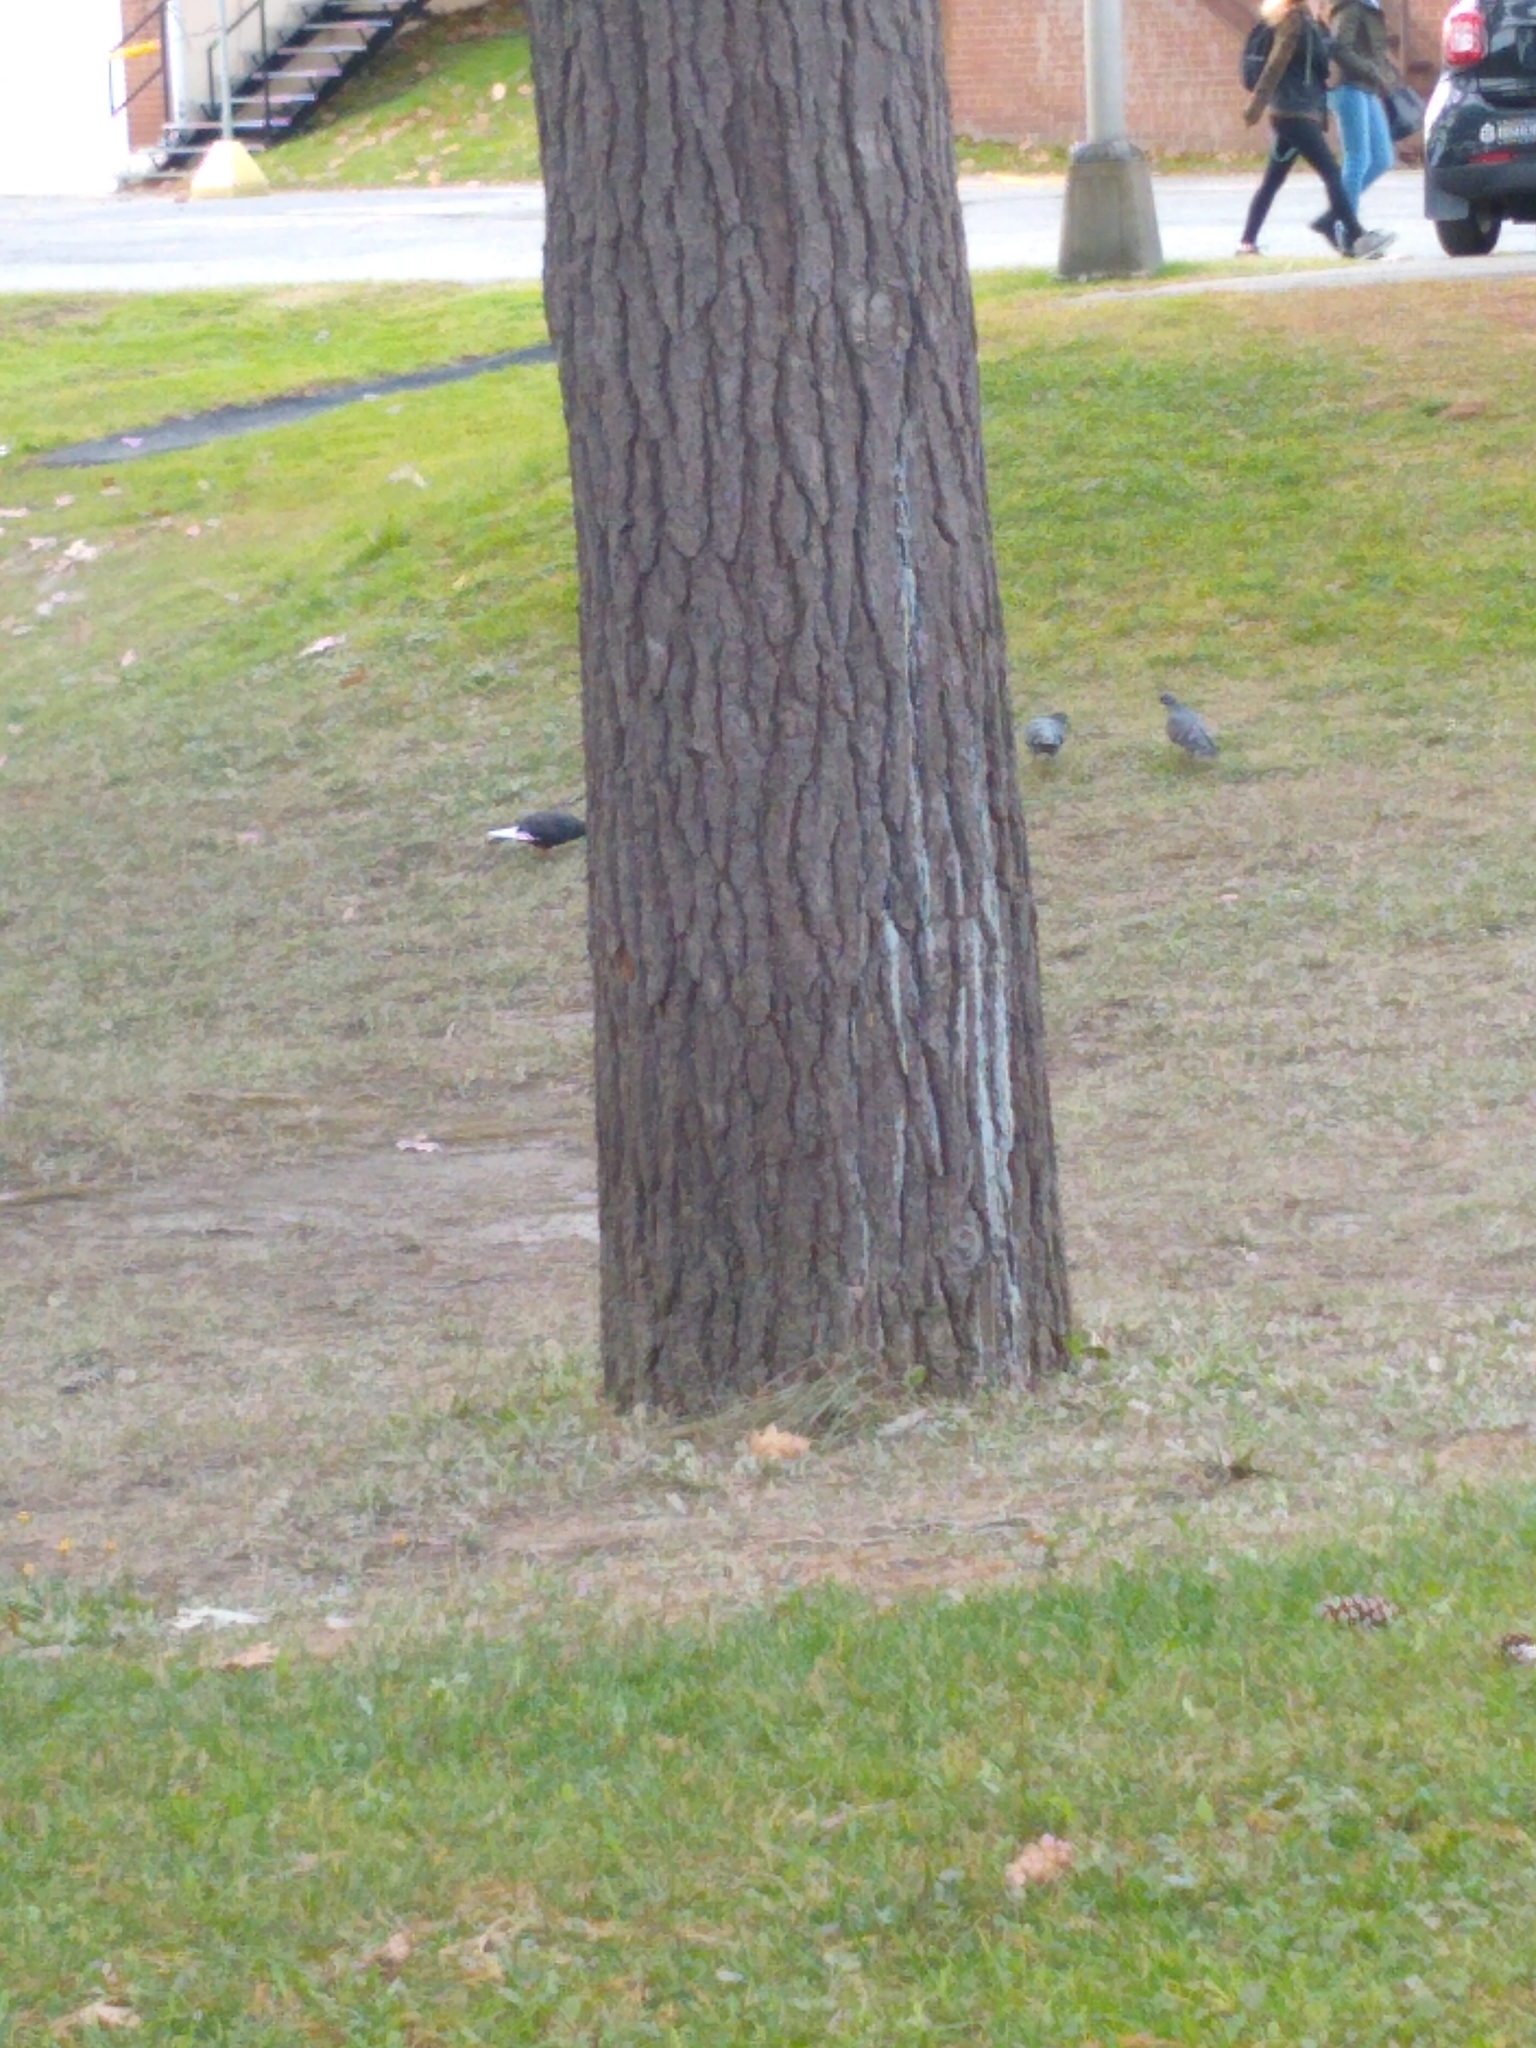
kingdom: Animalia
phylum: Chordata
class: Aves
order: Columbiformes
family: Columbidae
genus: Columba
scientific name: Columba livia
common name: Rock pigeon
